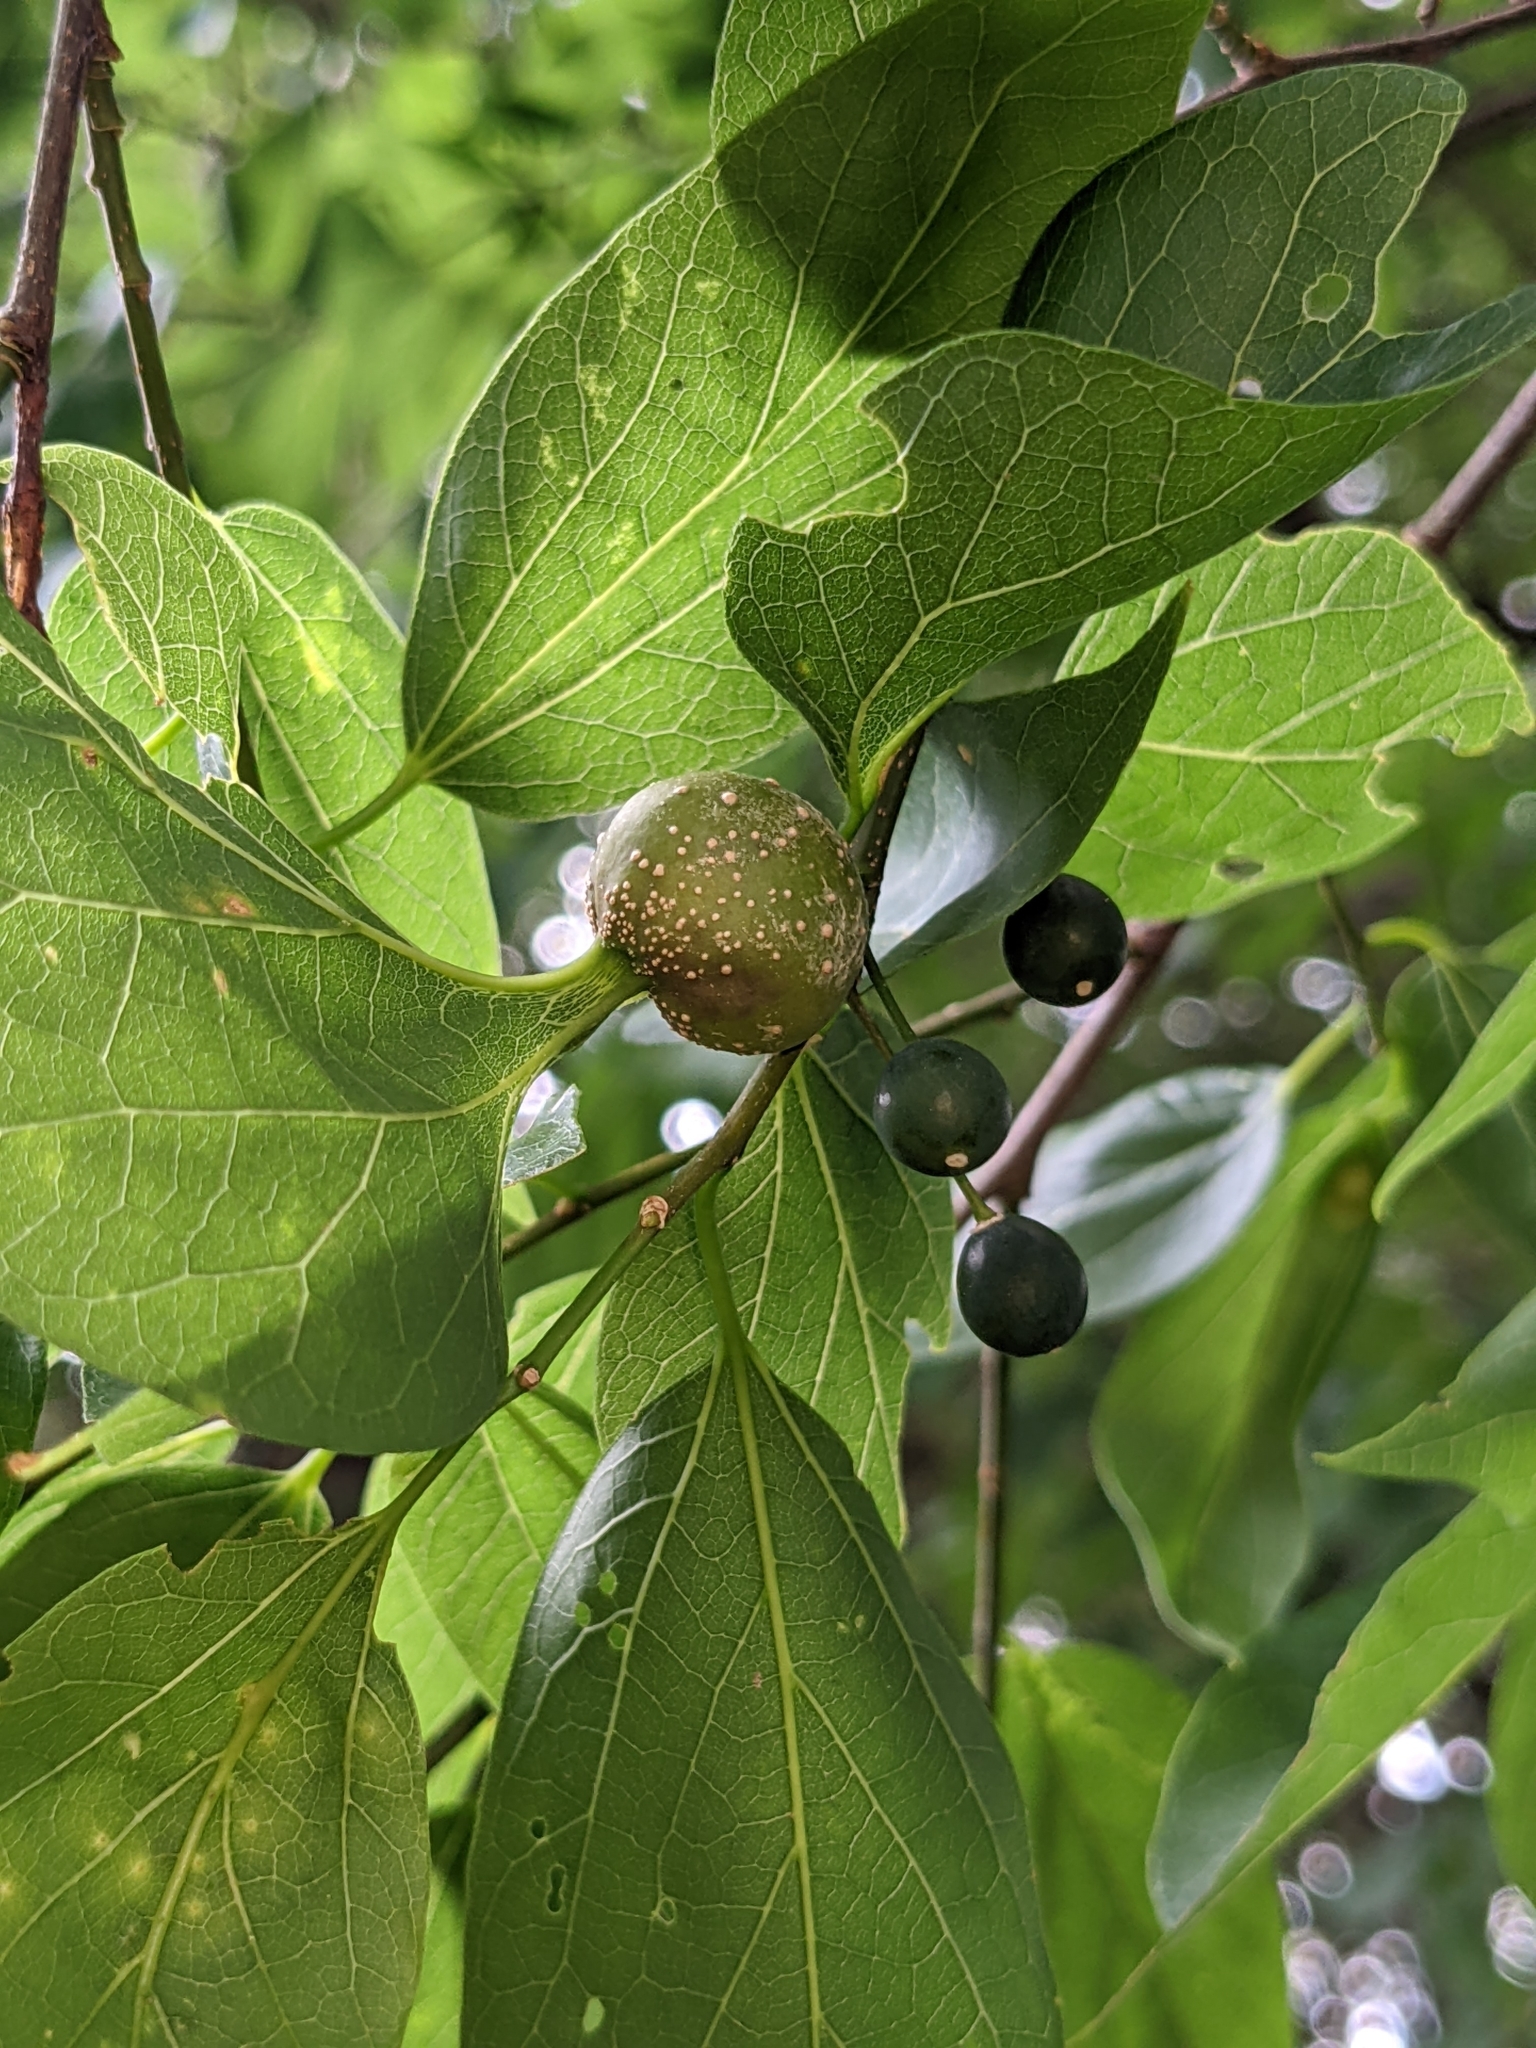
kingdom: Animalia
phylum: Arthropoda
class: Insecta
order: Hemiptera
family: Aphalaridae
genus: Pachypsylla
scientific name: Pachypsylla venusta
